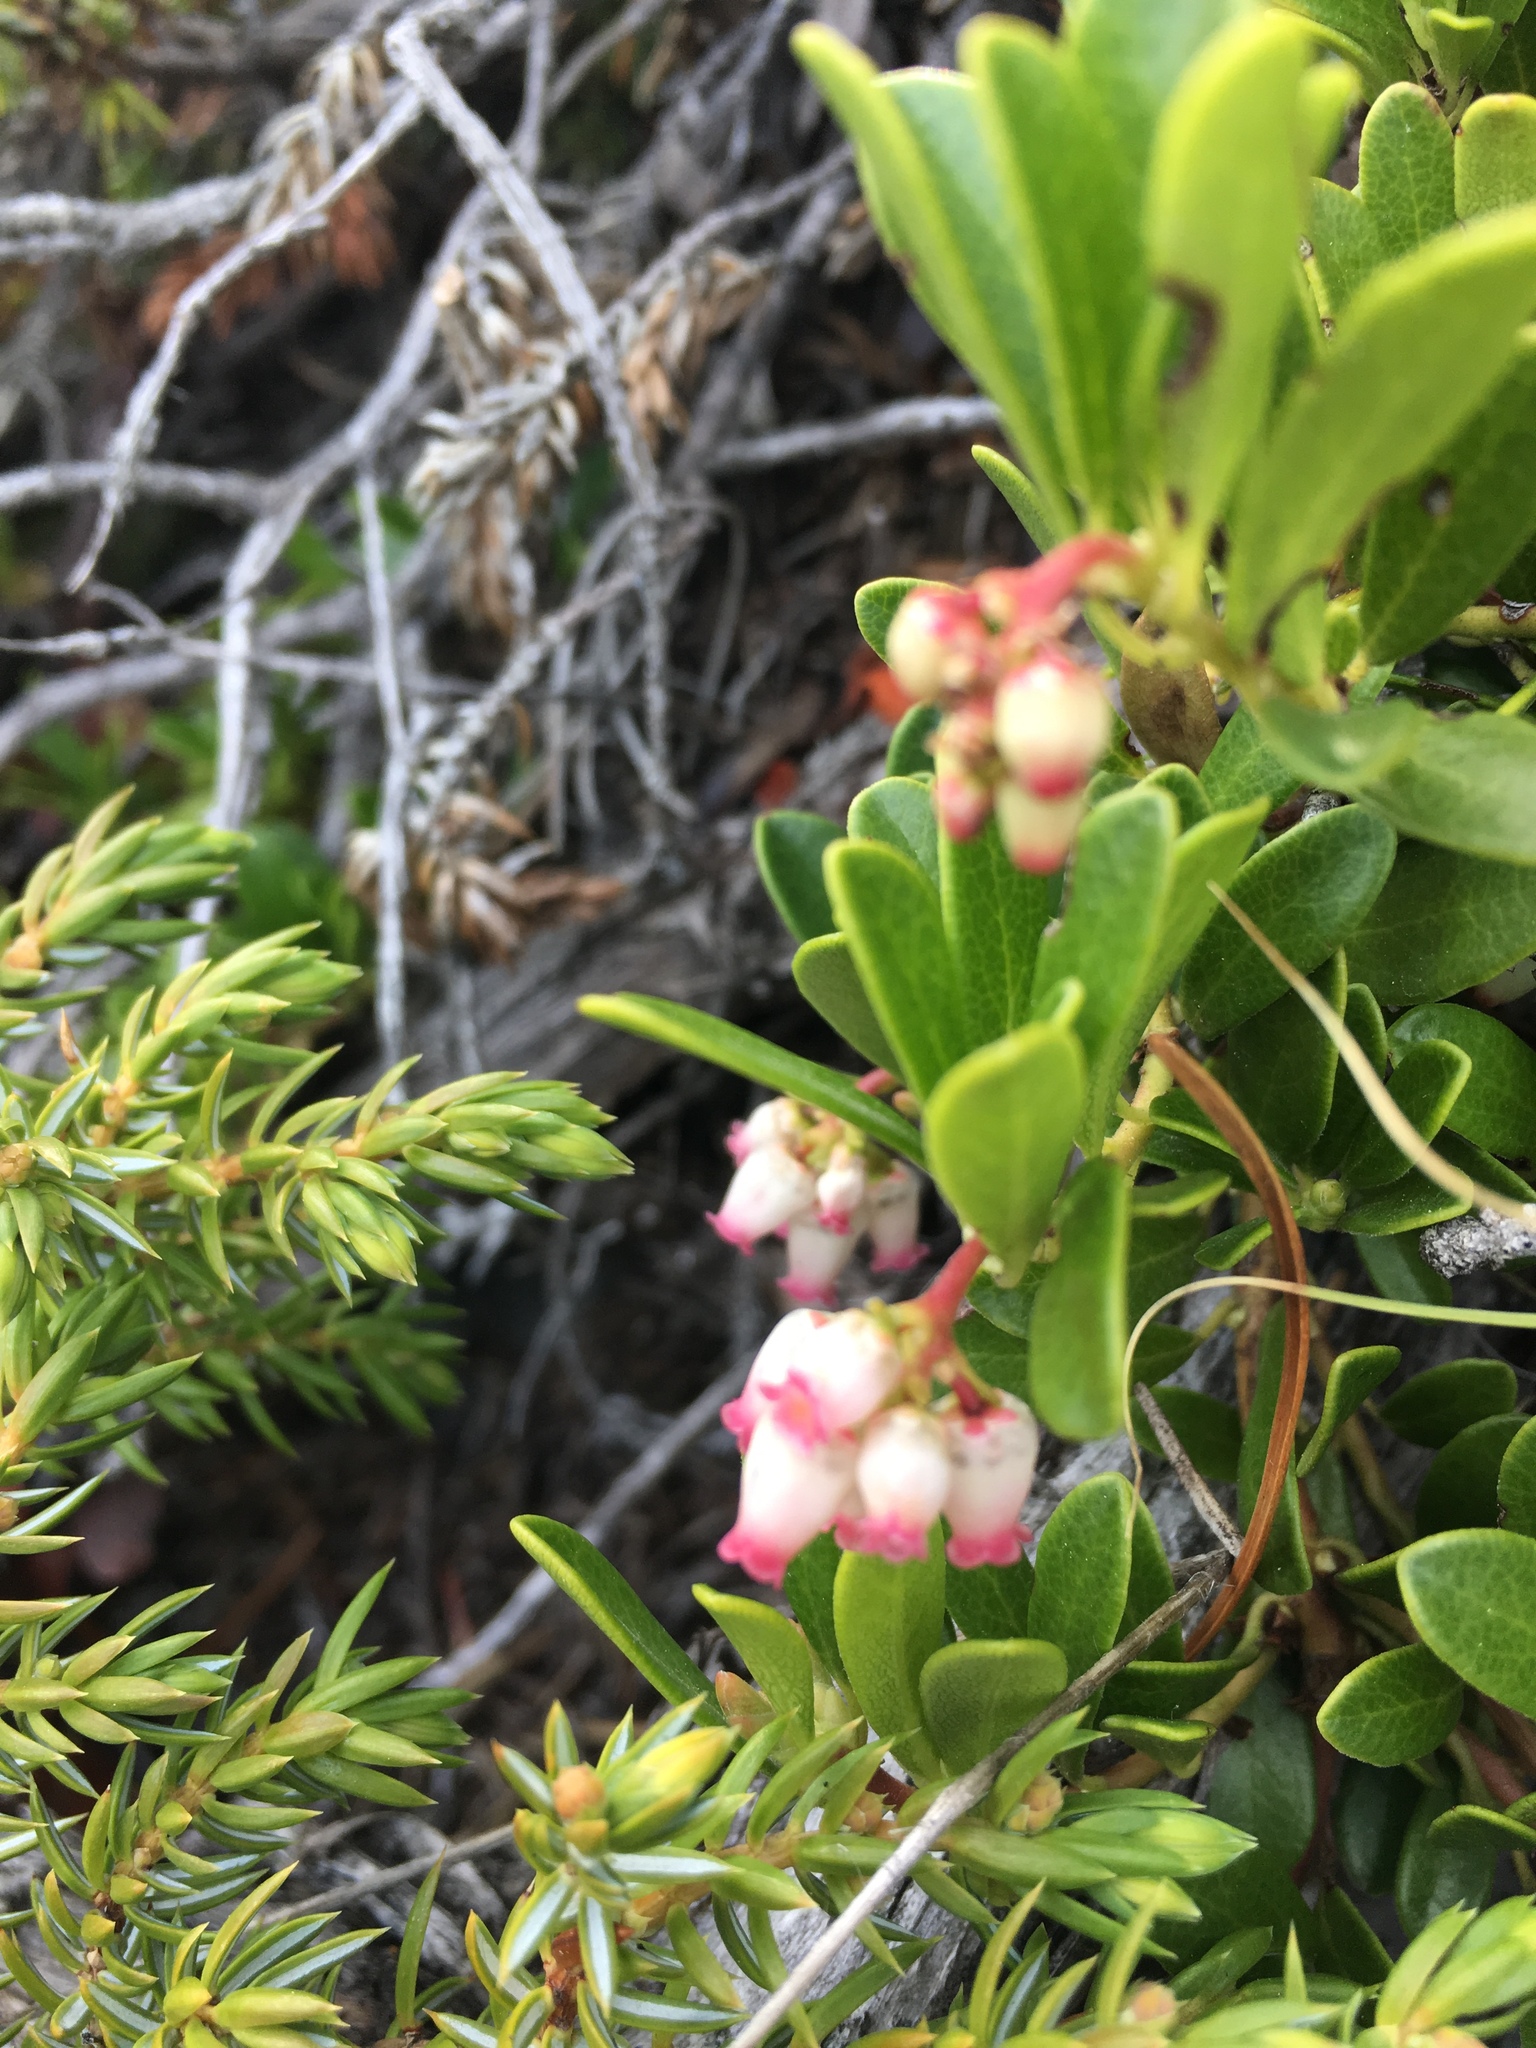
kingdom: Plantae
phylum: Tracheophyta
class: Magnoliopsida
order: Ericales
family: Ericaceae
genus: Arctostaphylos
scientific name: Arctostaphylos uva-ursi
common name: Bearberry
